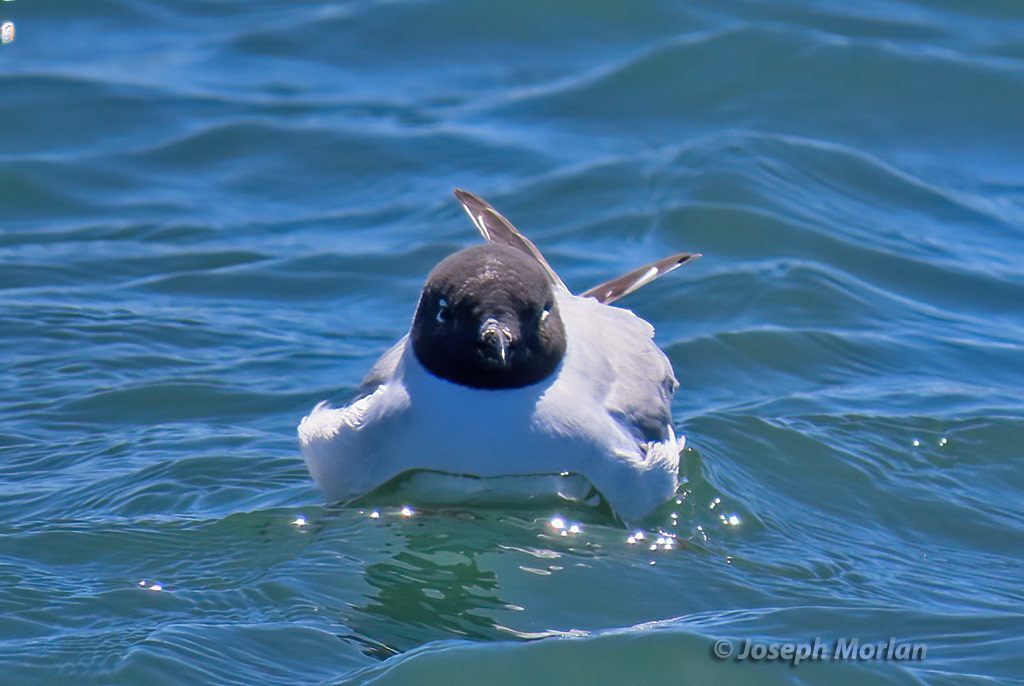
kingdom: Animalia
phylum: Chordata
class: Aves
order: Charadriiformes
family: Laridae
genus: Chroicocephalus
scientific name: Chroicocephalus philadelphia
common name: Bonaparte's gull
